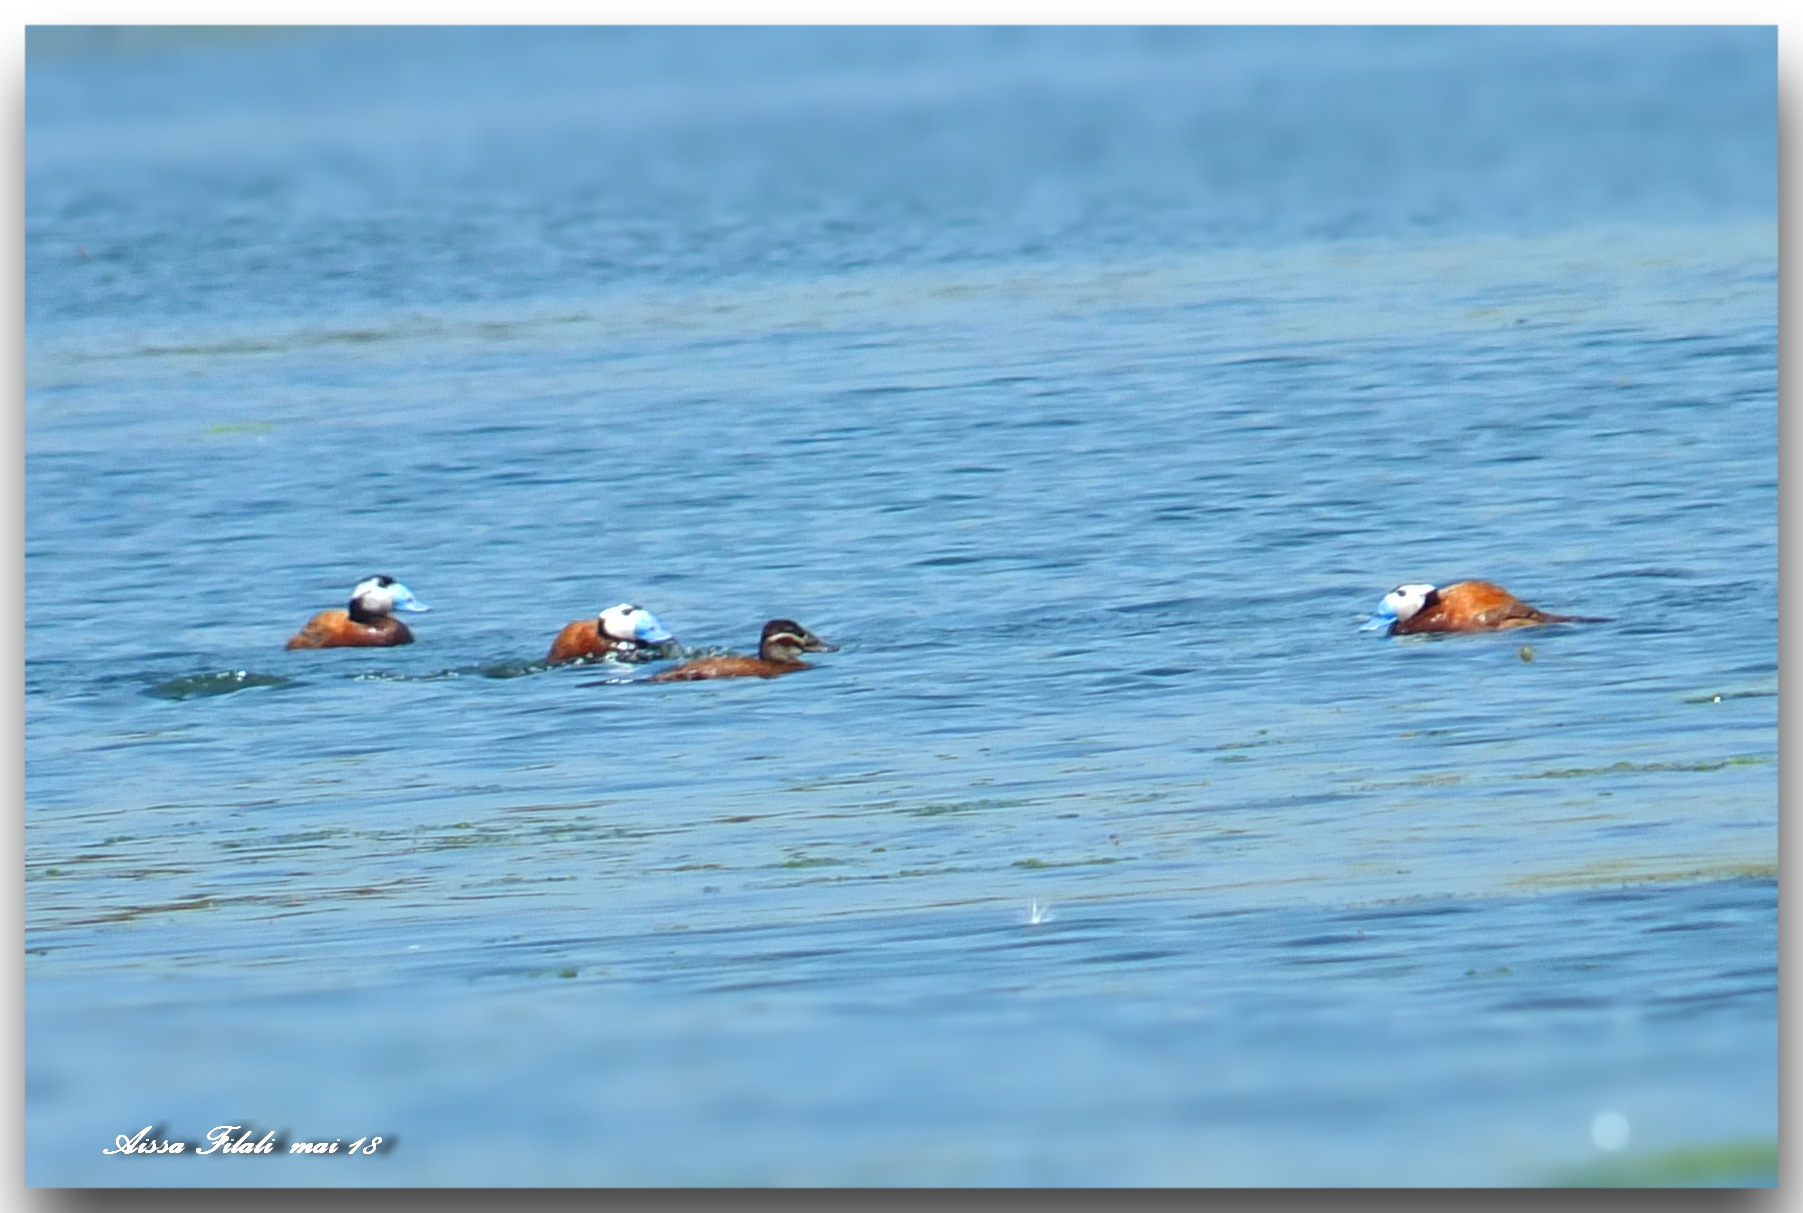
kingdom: Animalia
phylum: Chordata
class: Aves
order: Anseriformes
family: Anatidae
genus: Oxyura
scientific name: Oxyura leucocephala
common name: White-headed duck
